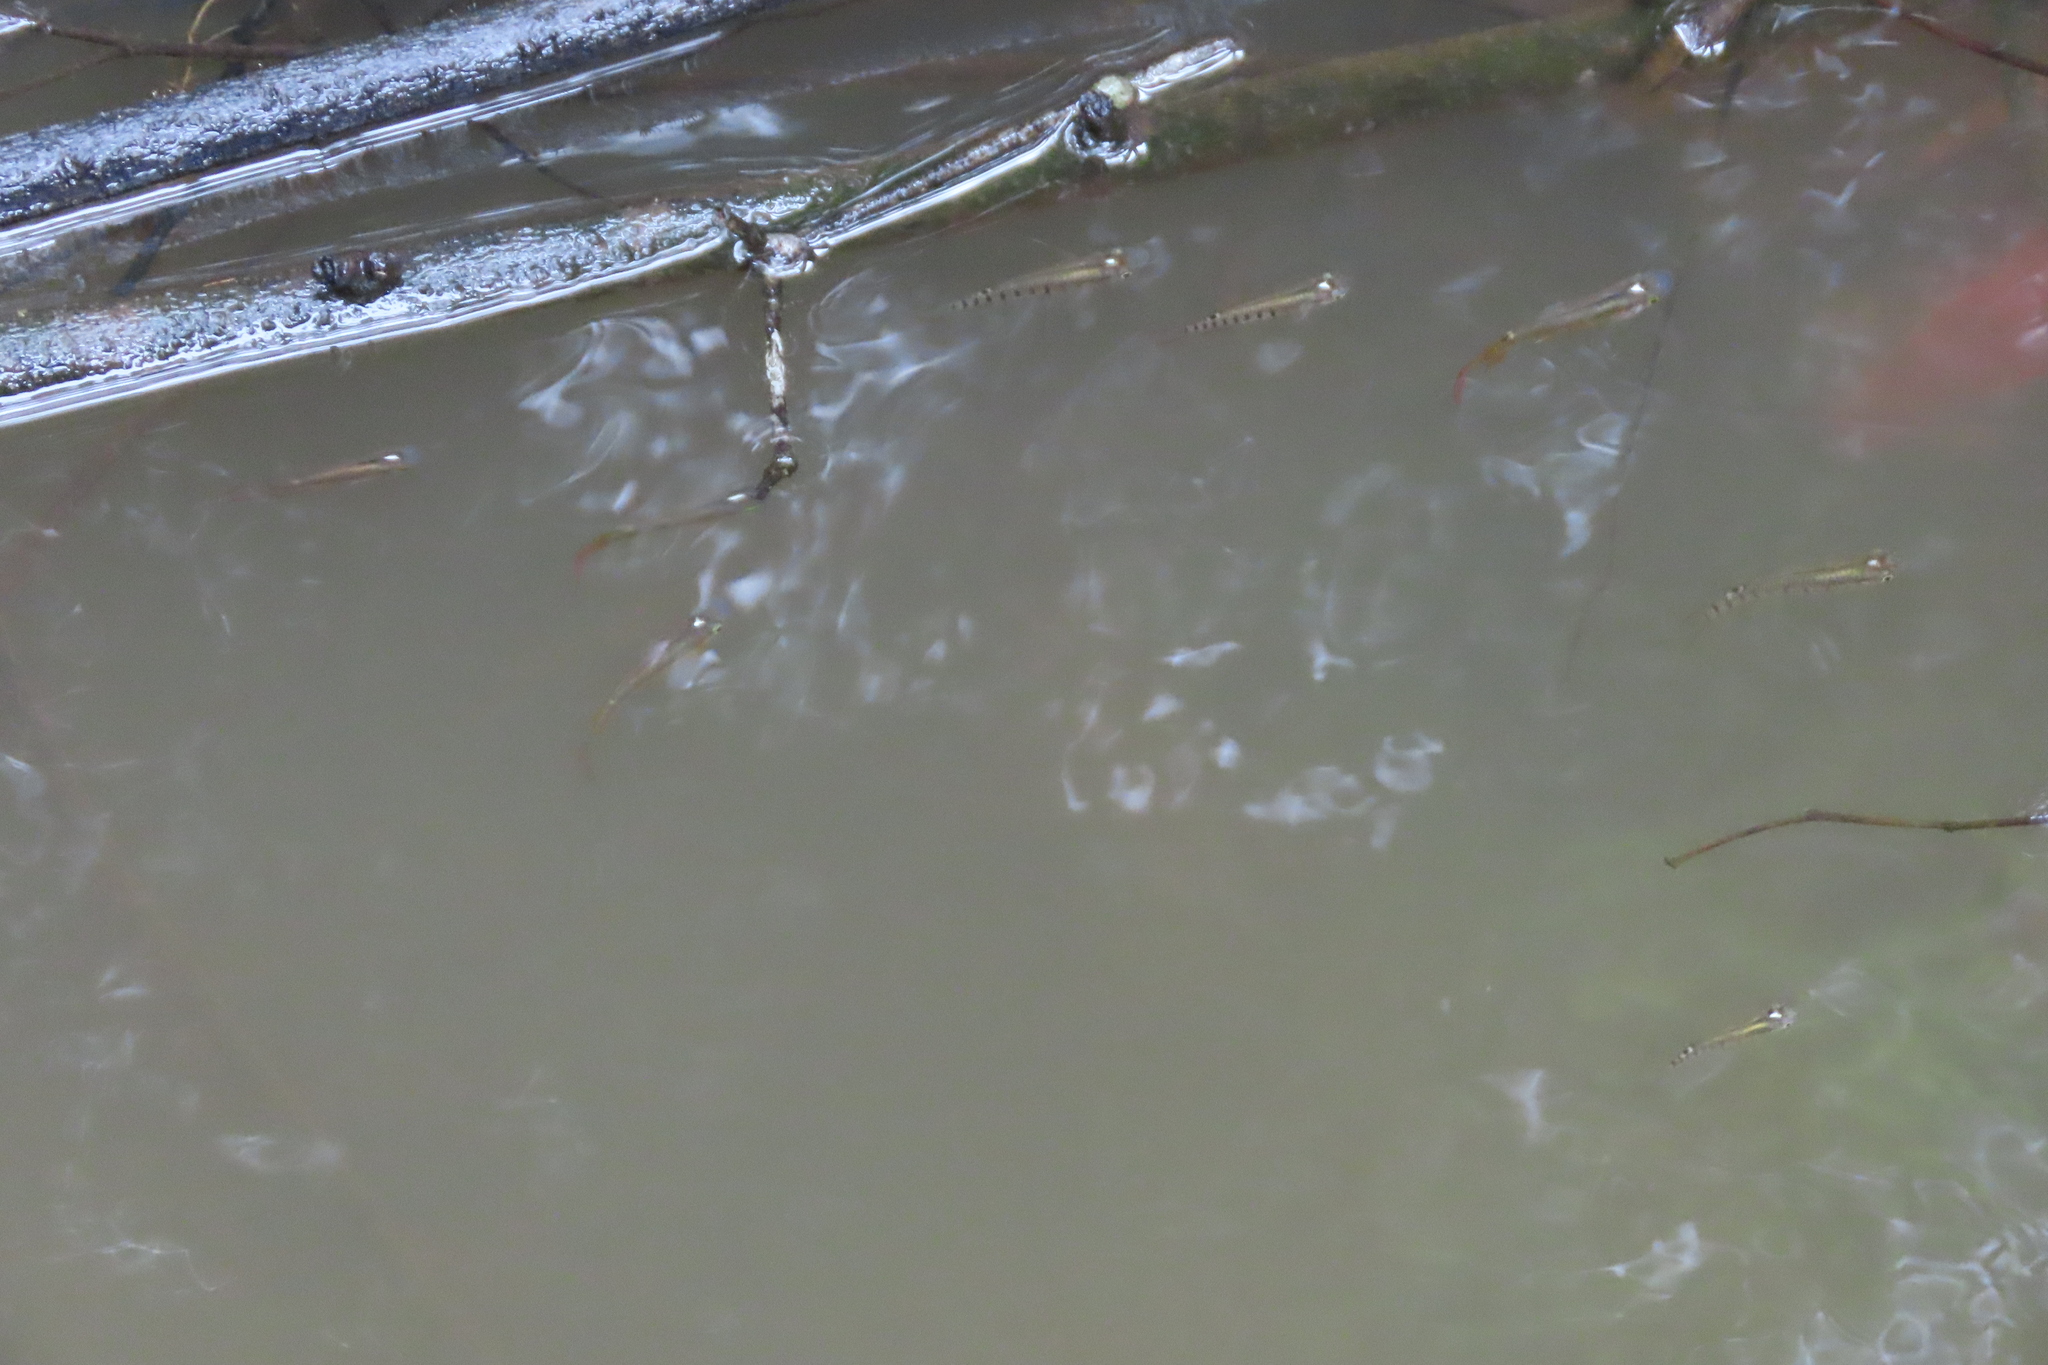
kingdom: Animalia
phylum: Chordata
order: Cyprinodontiformes
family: Aplocheilidae
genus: Aplocheilus
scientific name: Aplocheilus lineatus
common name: Striped panchax
